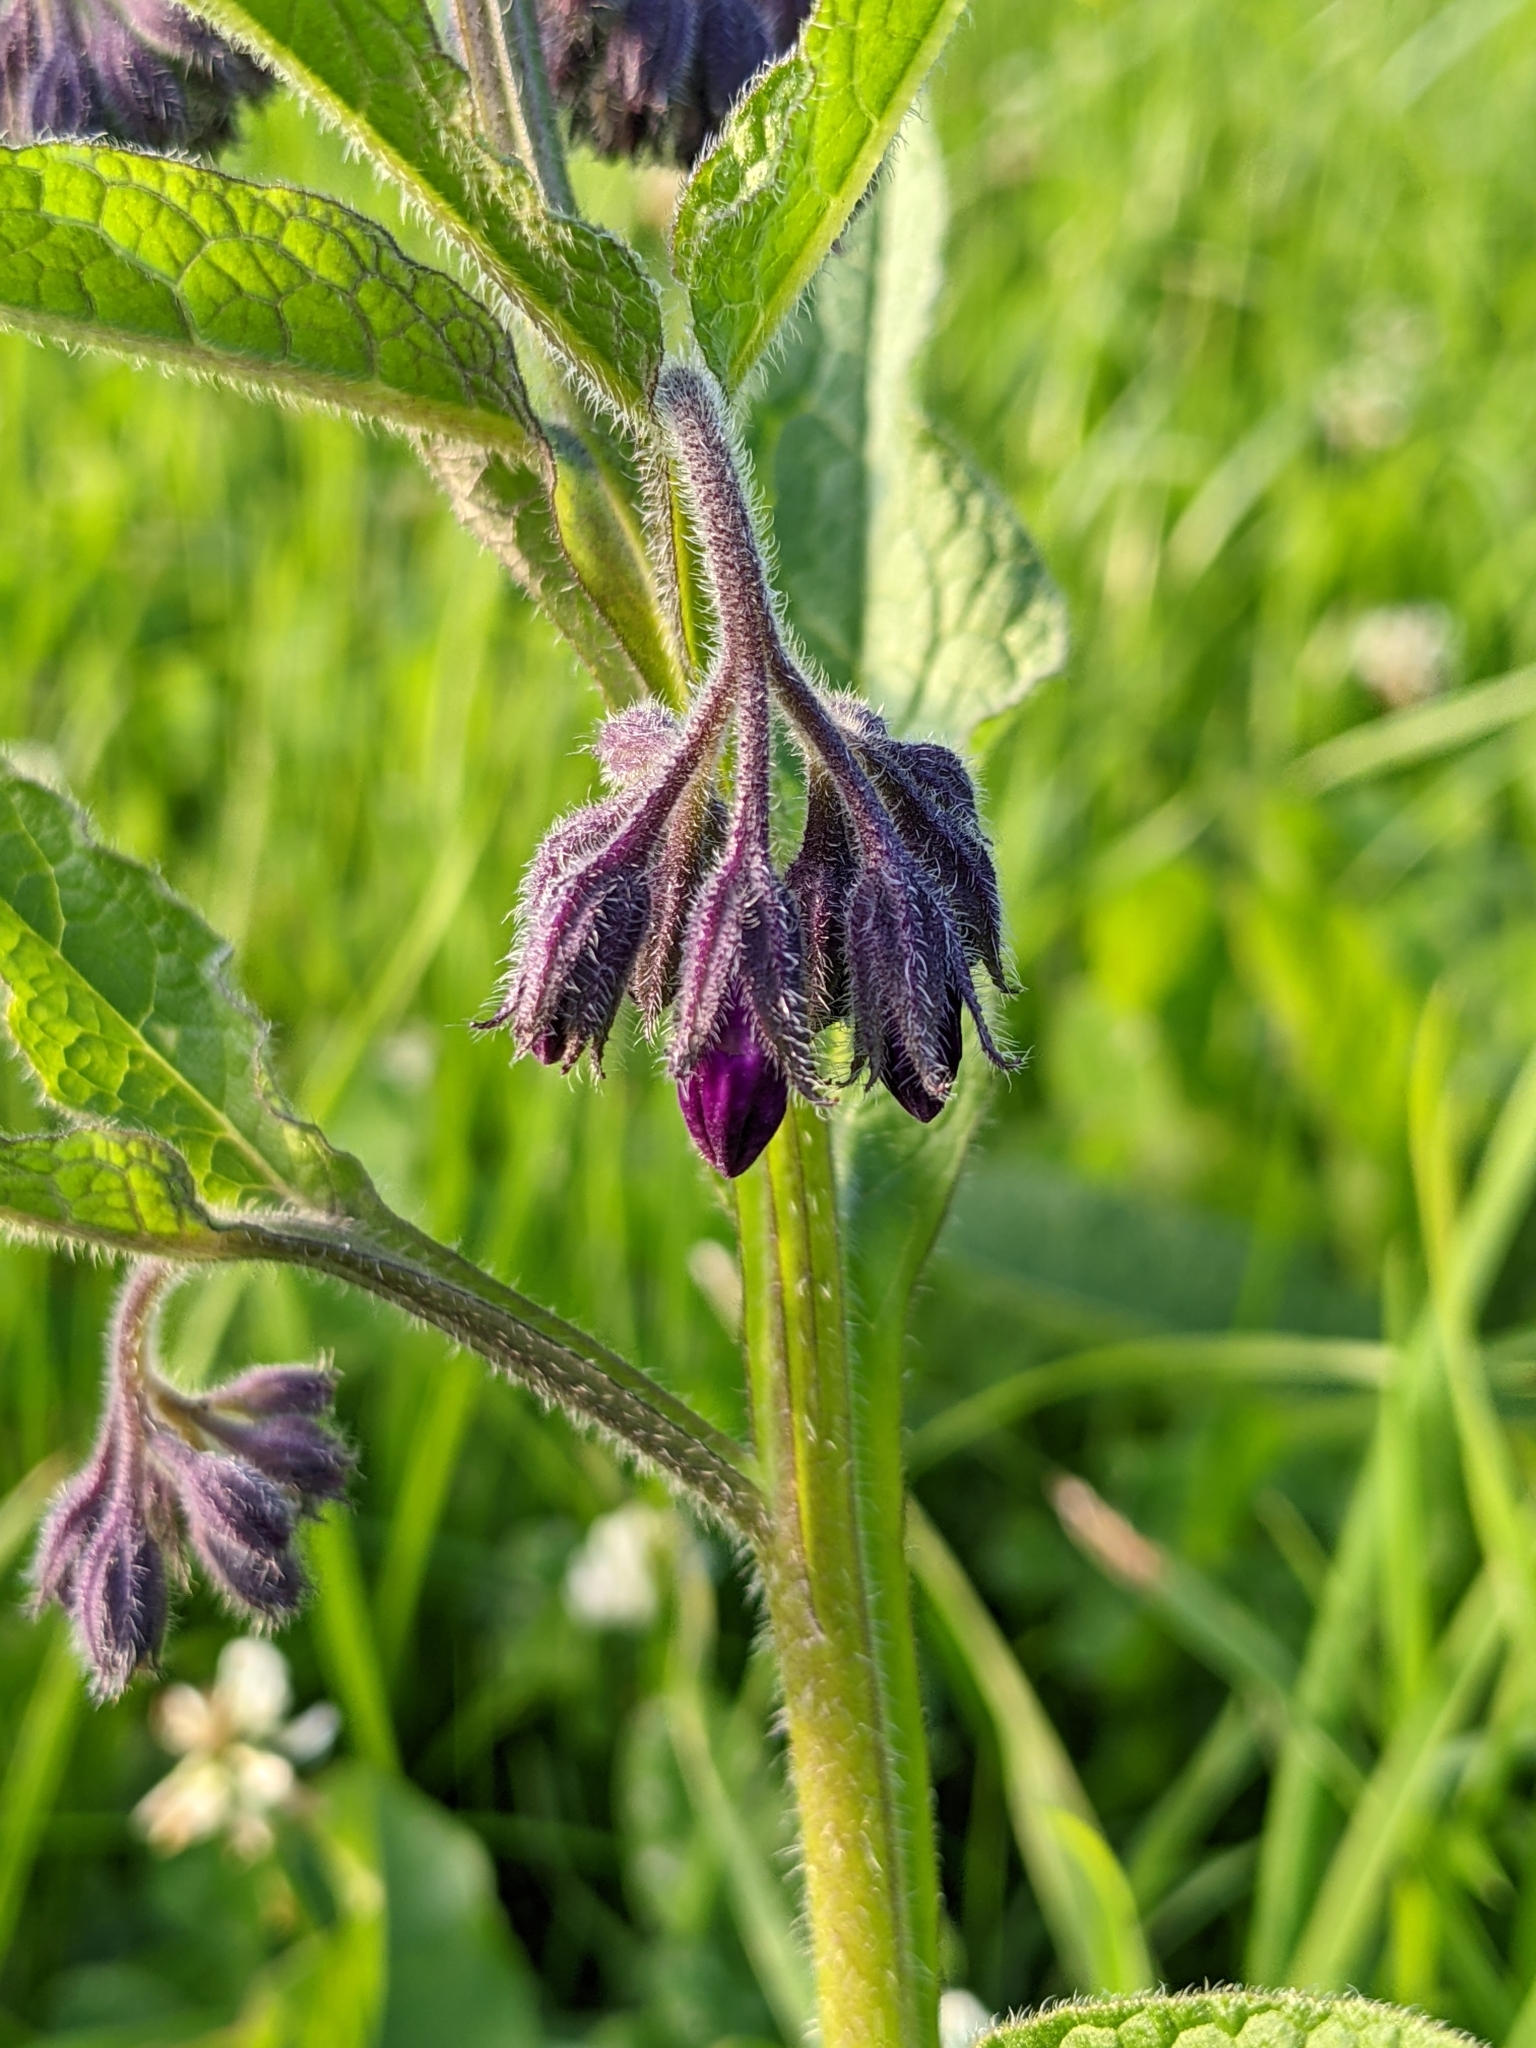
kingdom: Plantae
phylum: Tracheophyta
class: Magnoliopsida
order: Boraginales
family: Boraginaceae
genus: Symphytum
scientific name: Symphytum officinale
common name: Common comfrey
